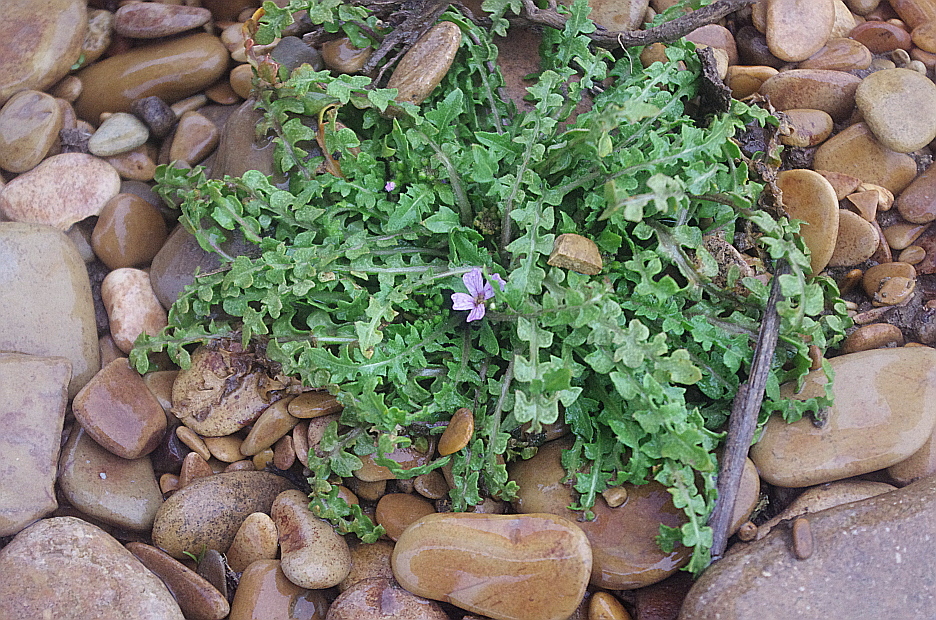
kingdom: Plantae
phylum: Tracheophyta
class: Magnoliopsida
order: Brassicales
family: Brassicaceae
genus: Neotorularia
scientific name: Neotorularia contortuplicata
